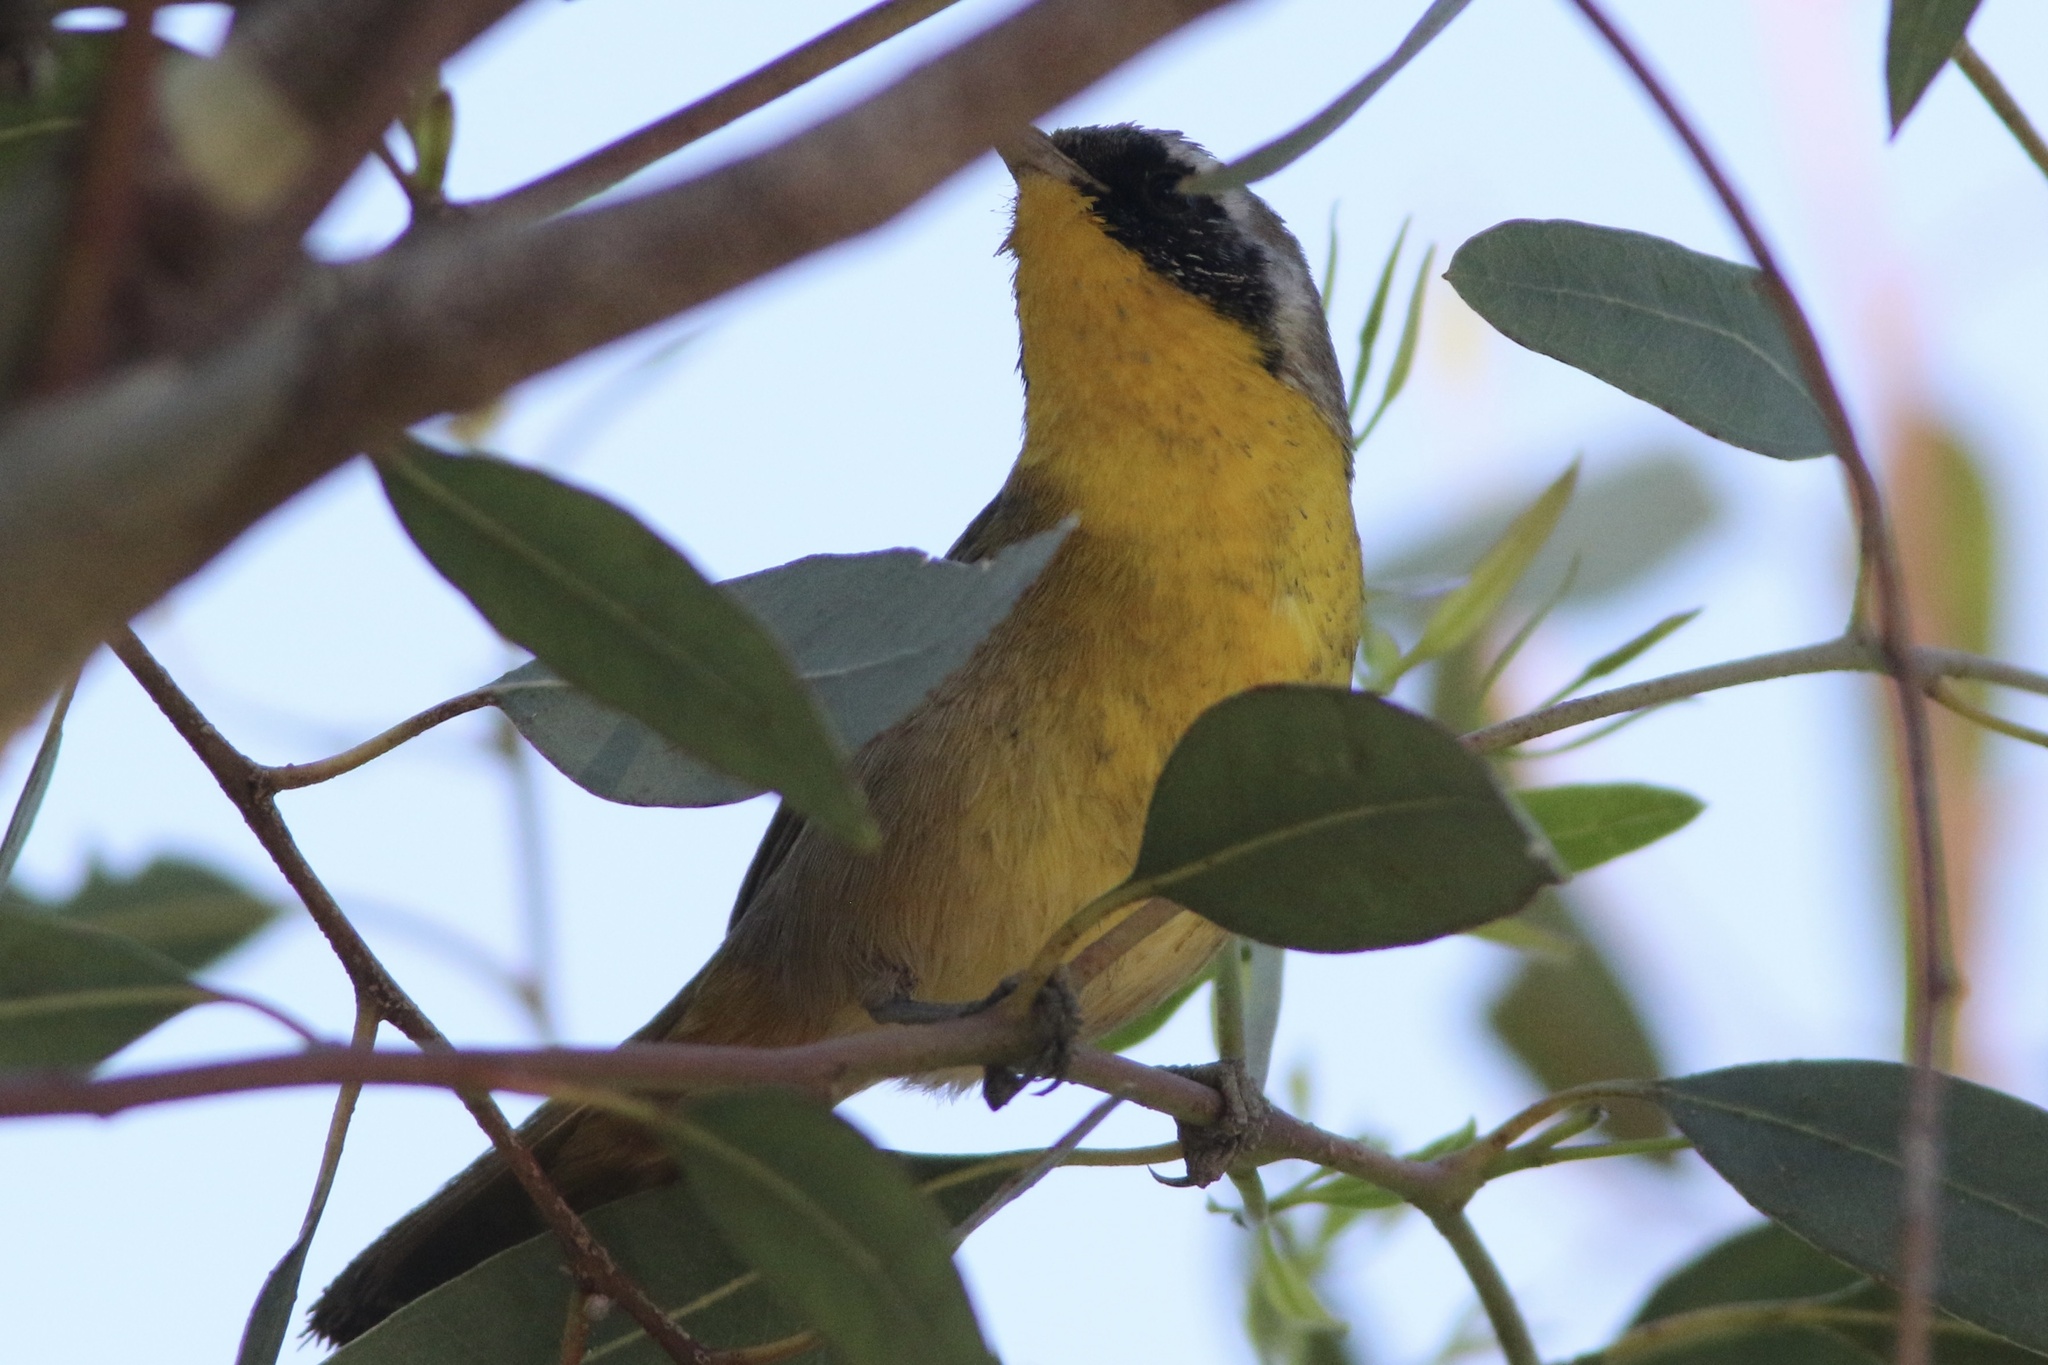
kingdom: Animalia
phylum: Chordata
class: Aves
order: Passeriformes
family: Parulidae
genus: Geothlypis
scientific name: Geothlypis trichas
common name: Common yellowthroat
